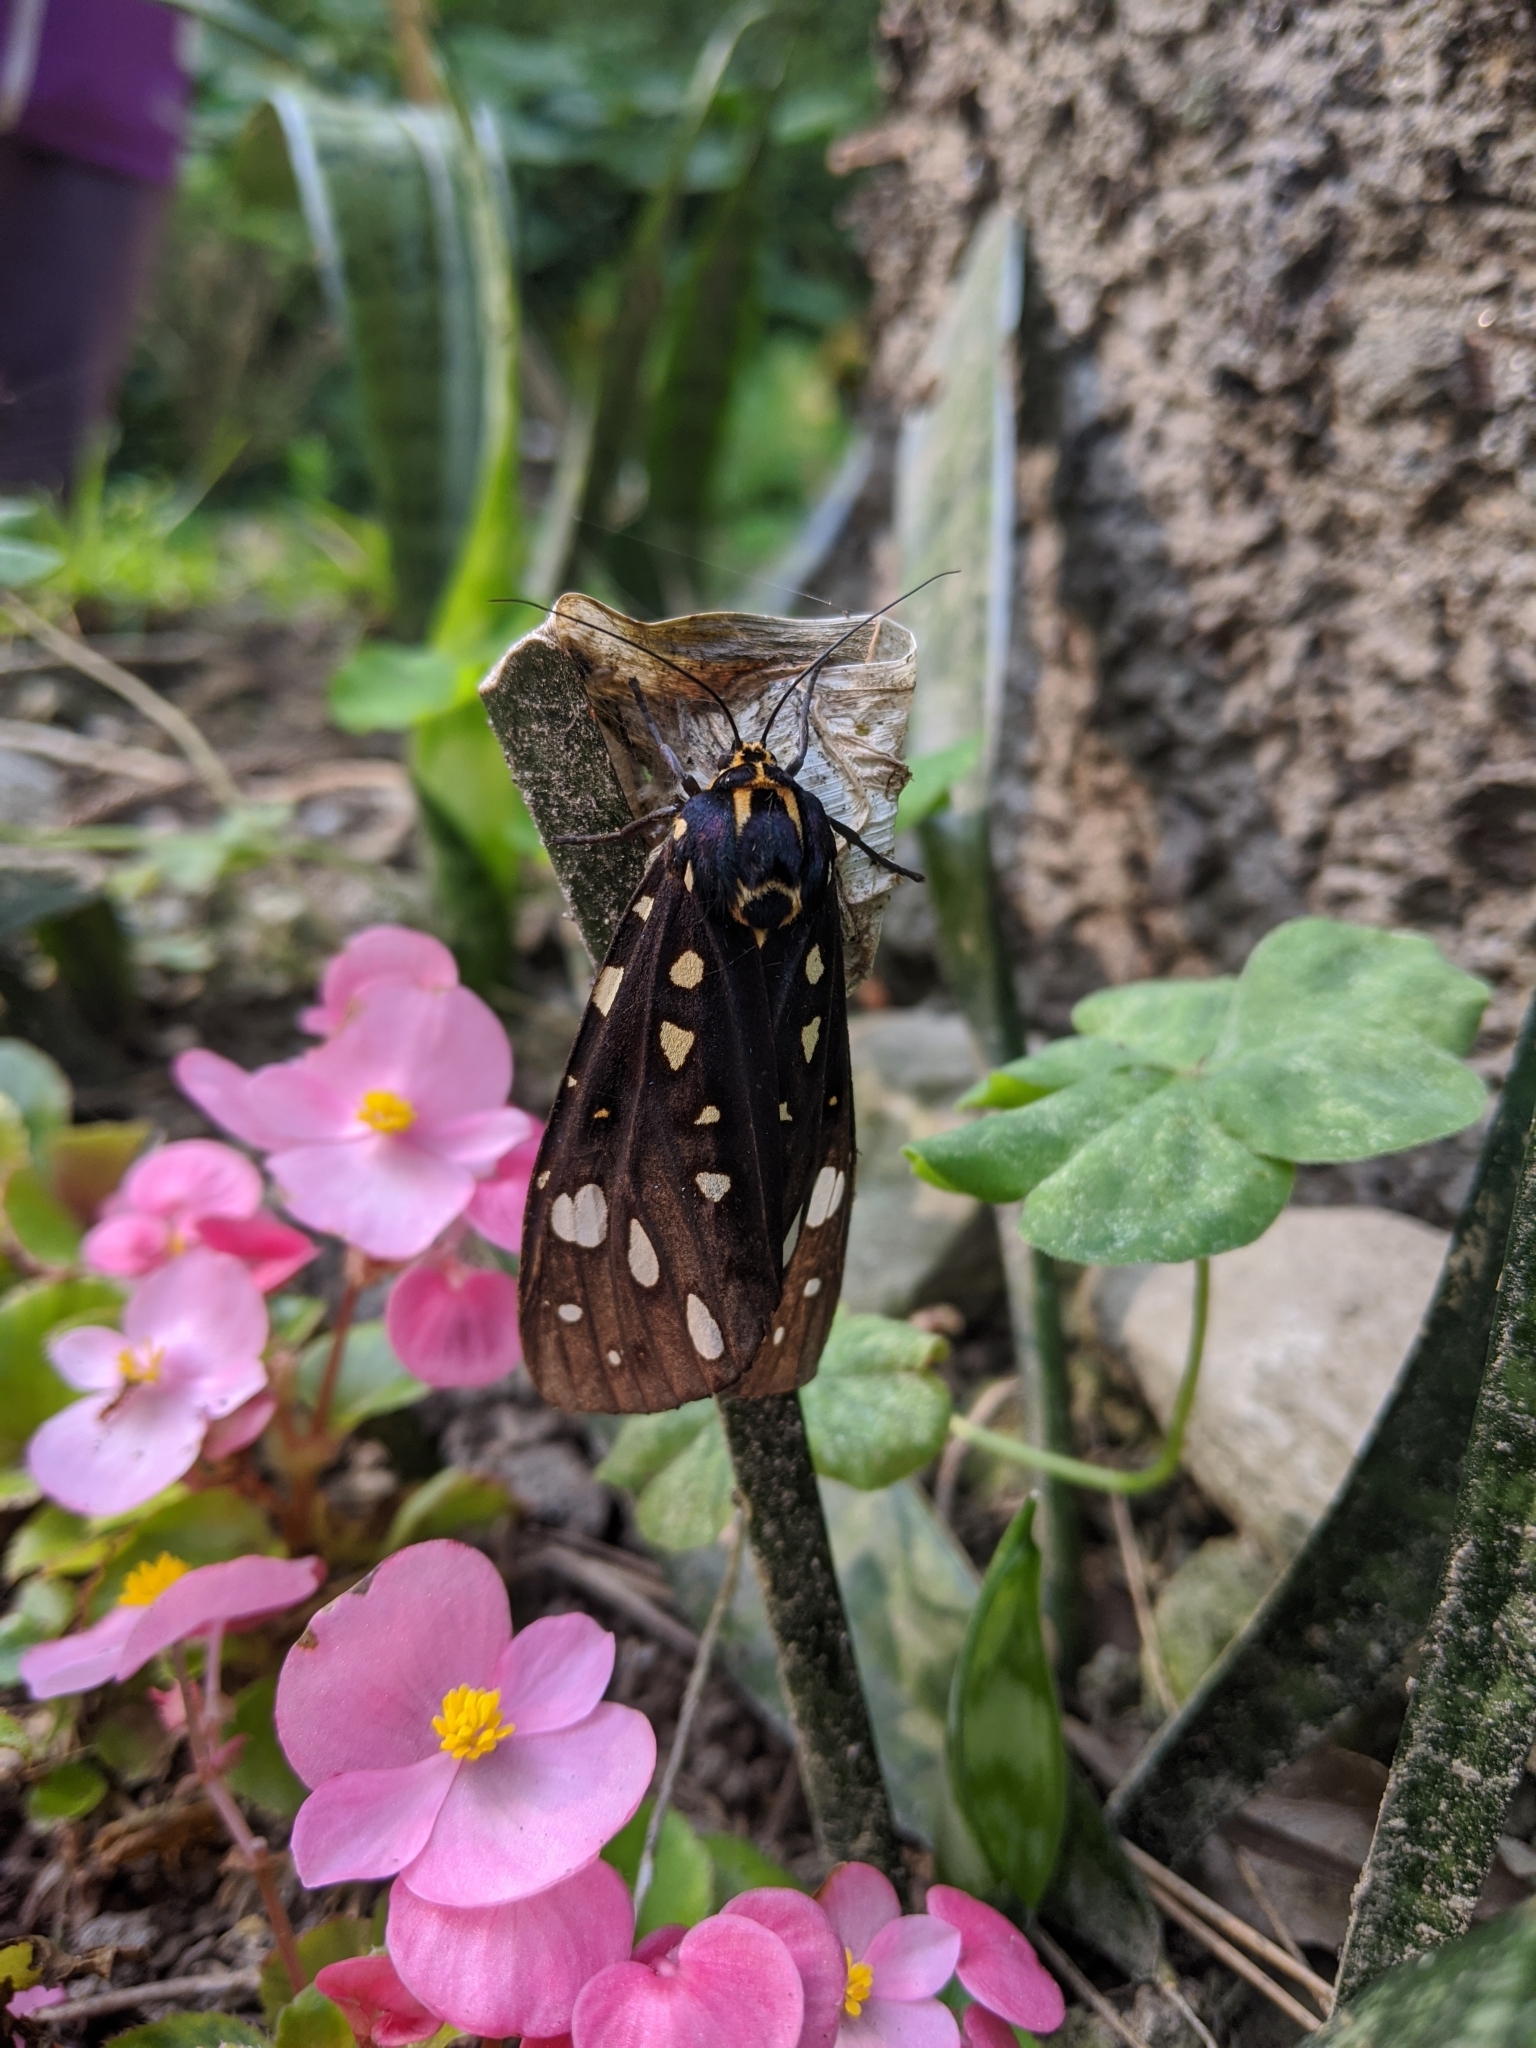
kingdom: Animalia
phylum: Arthropoda
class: Insecta
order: Lepidoptera
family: Erebidae
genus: Aglaomorpha
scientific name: Aglaomorpha histrio
